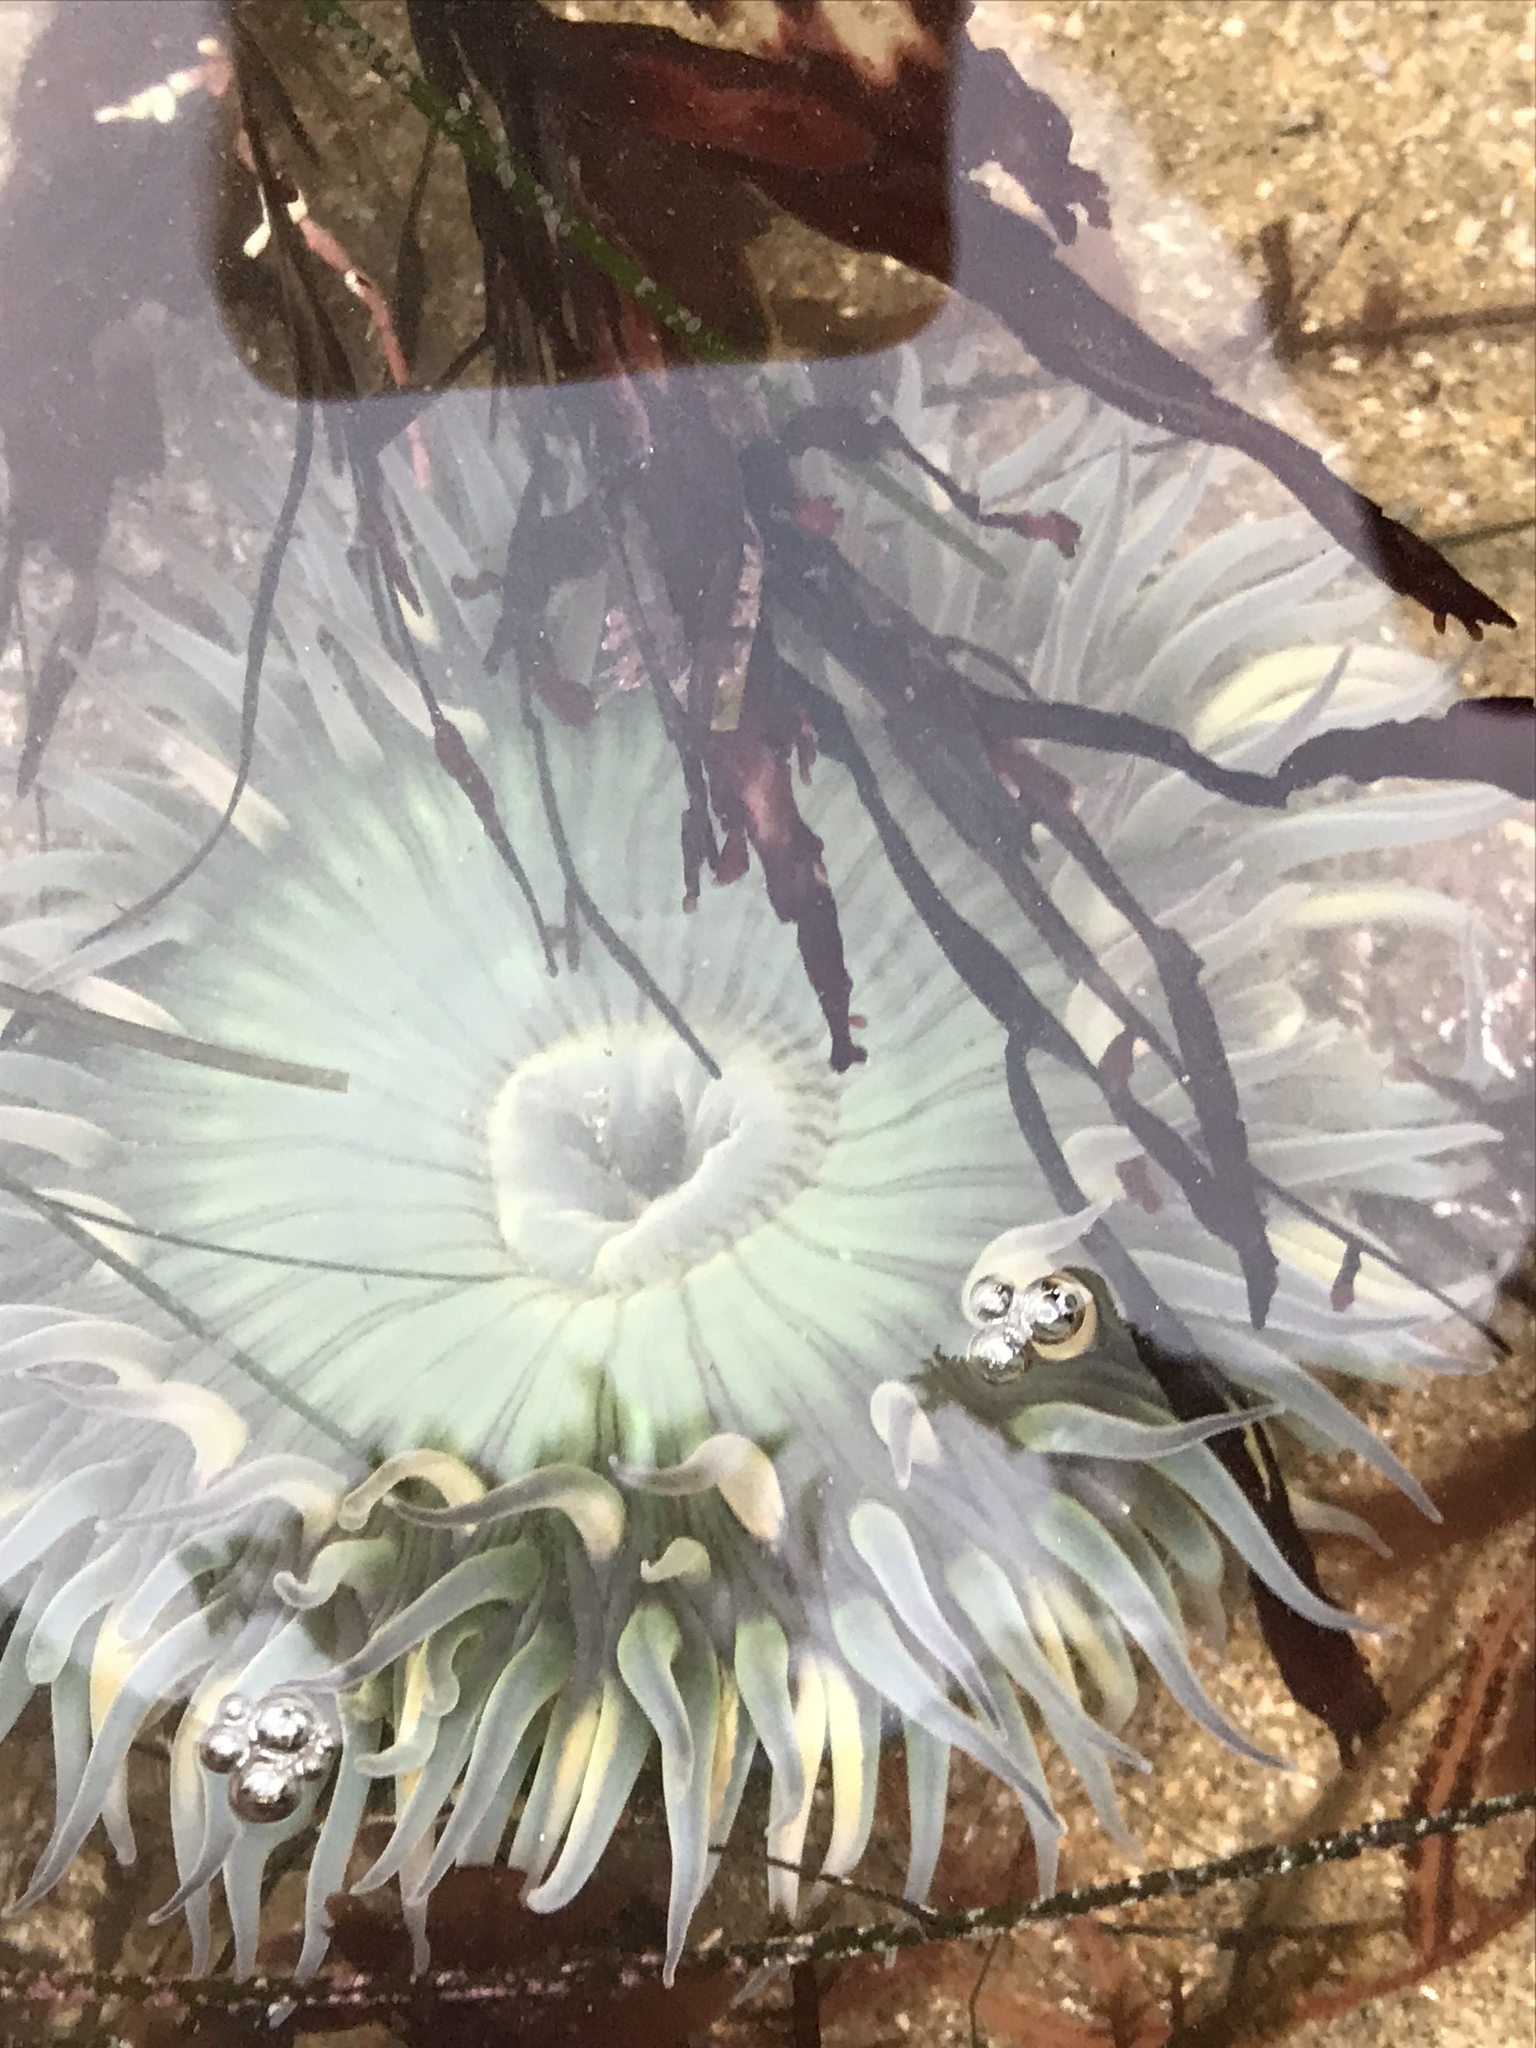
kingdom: Animalia
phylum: Cnidaria
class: Anthozoa
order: Actiniaria
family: Actiniidae
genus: Anthopleura
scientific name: Anthopleura sola
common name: Sun anemone
